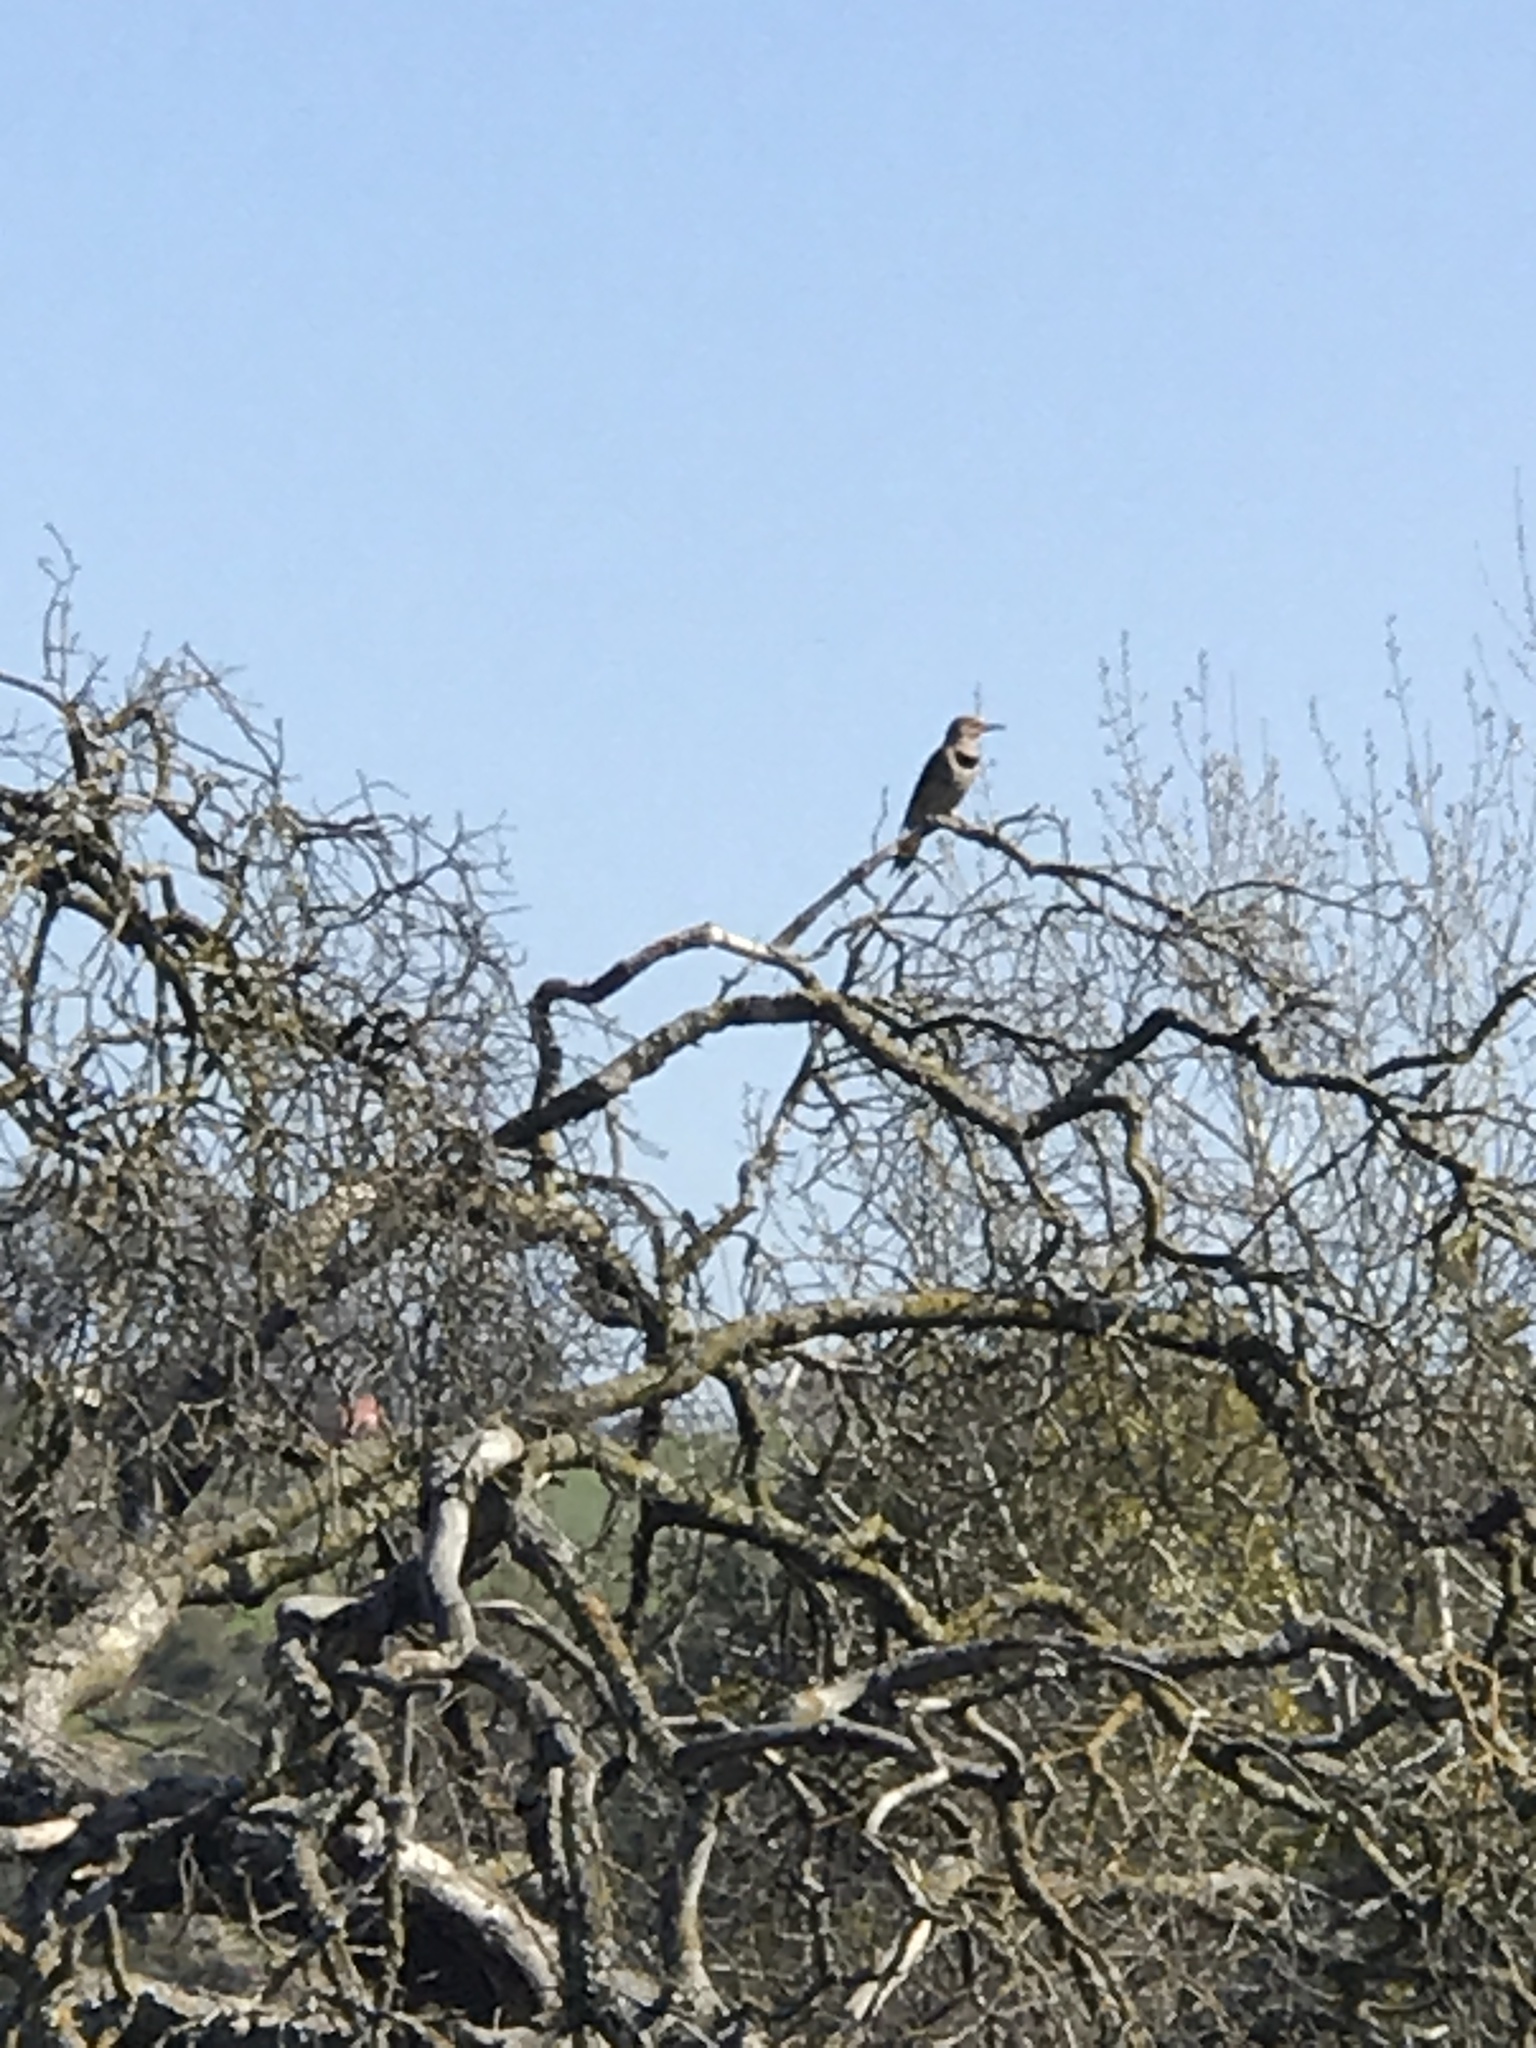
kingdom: Animalia
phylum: Chordata
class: Aves
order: Piciformes
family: Picidae
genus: Colaptes
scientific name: Colaptes auratus
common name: Northern flicker
